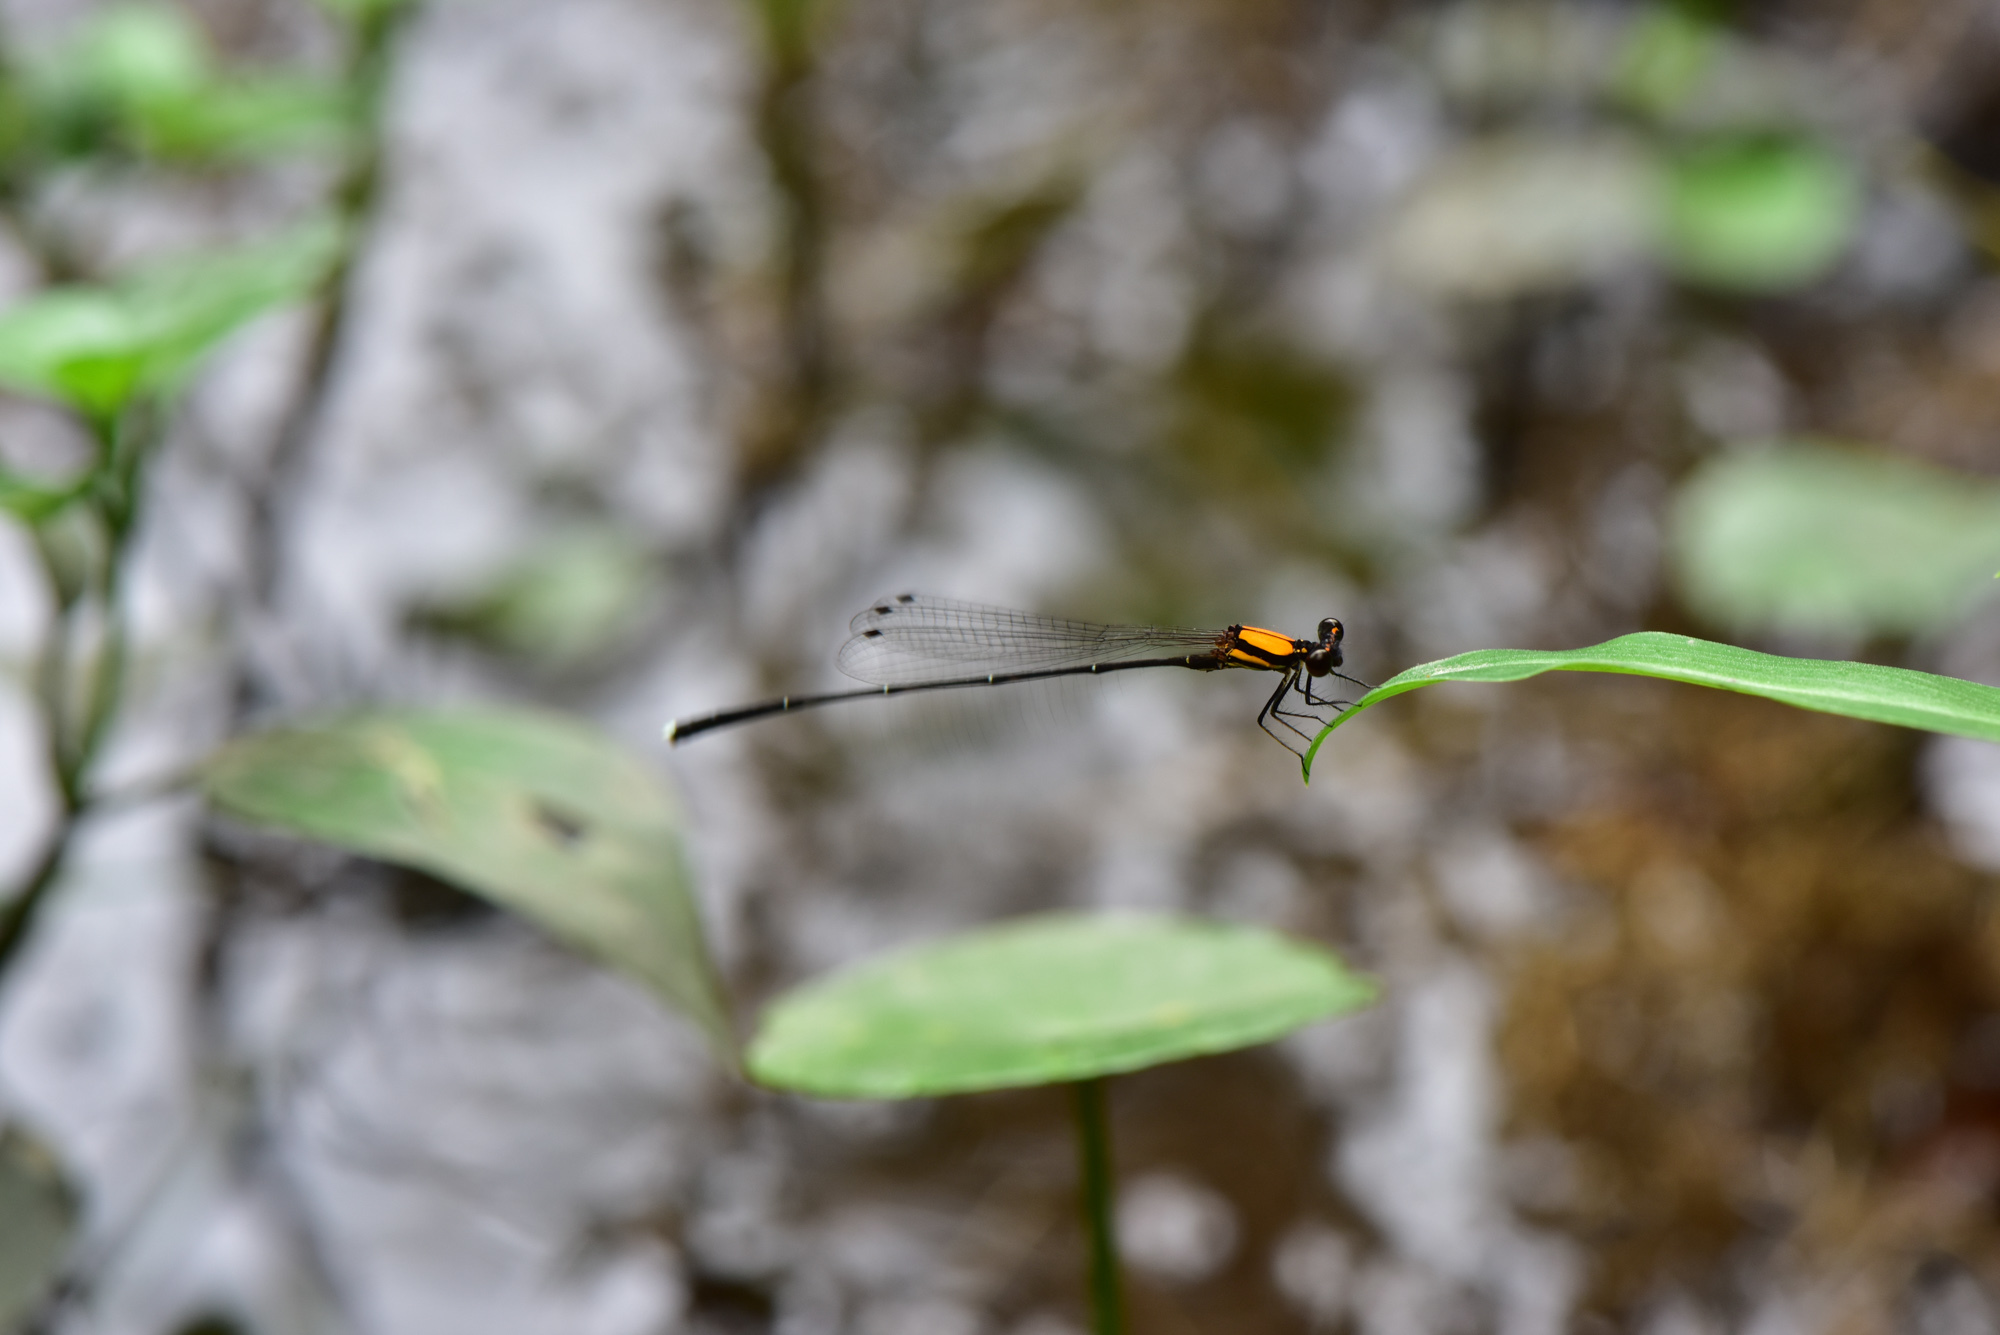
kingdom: Animalia
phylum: Arthropoda
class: Insecta
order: Odonata
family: Platycnemididae
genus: Prodasineura
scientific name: Prodasineura croconota
